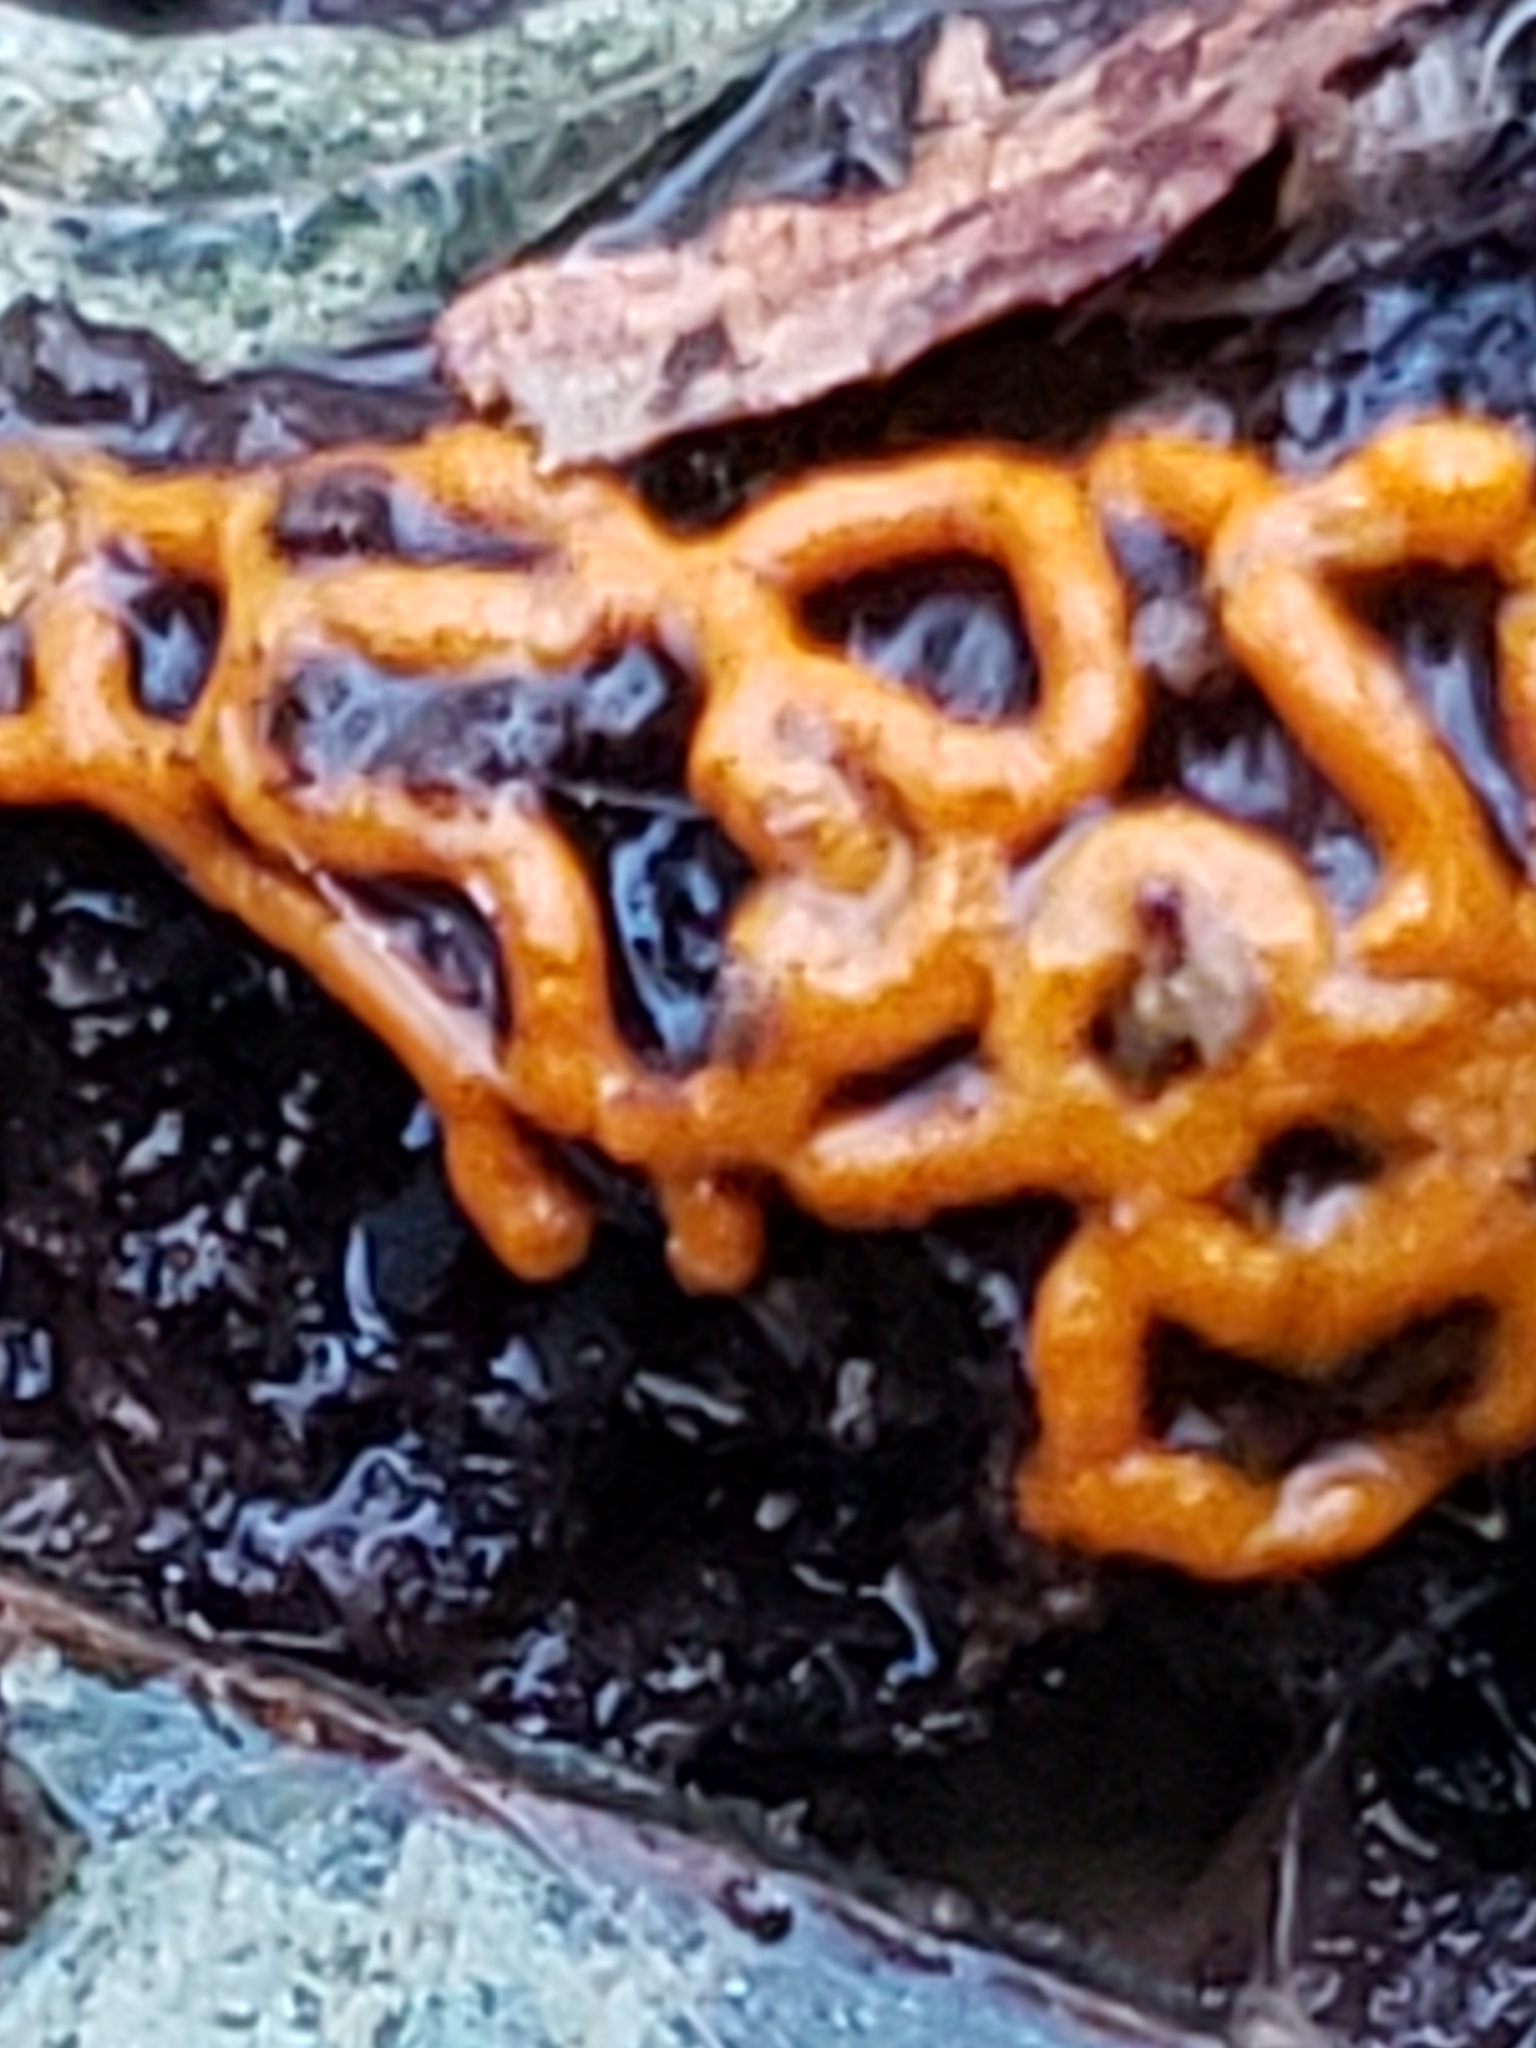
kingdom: Protozoa
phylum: Mycetozoa
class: Myxomycetes
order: Trichiales
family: Arcyriaceae
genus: Hemitrichia
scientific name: Hemitrichia serpula
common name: Pretzel slime mold
